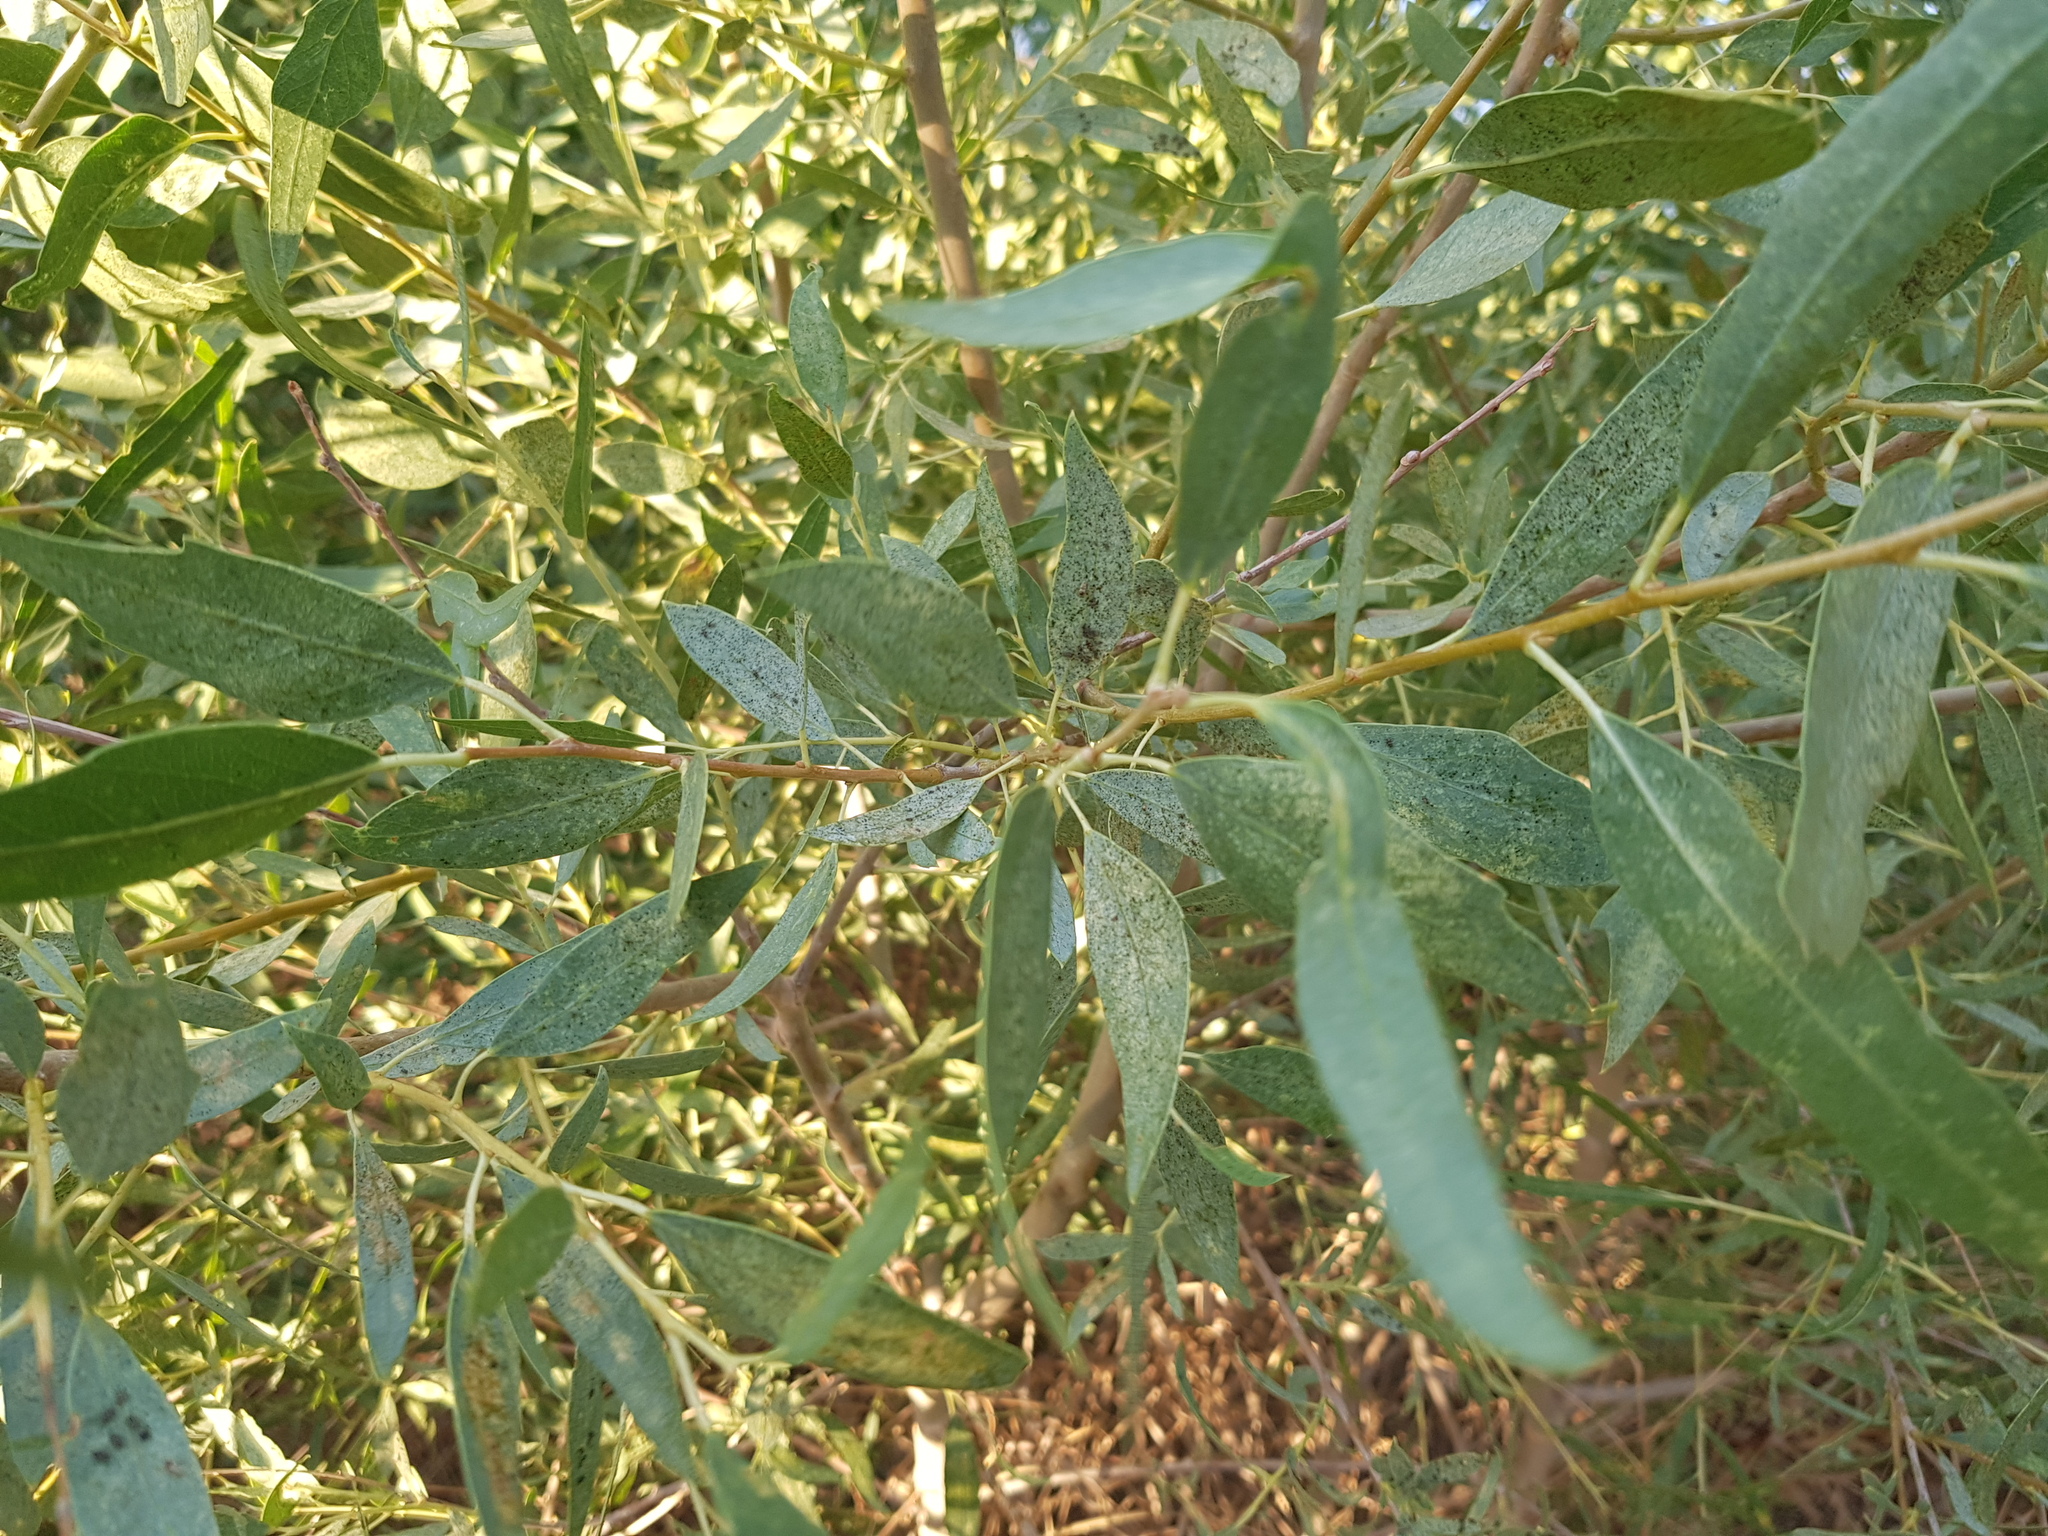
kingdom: Plantae
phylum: Tracheophyta
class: Magnoliopsida
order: Malpighiales
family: Salicaceae
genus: Populus
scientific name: Populus euphratica
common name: Euphrates poplar
